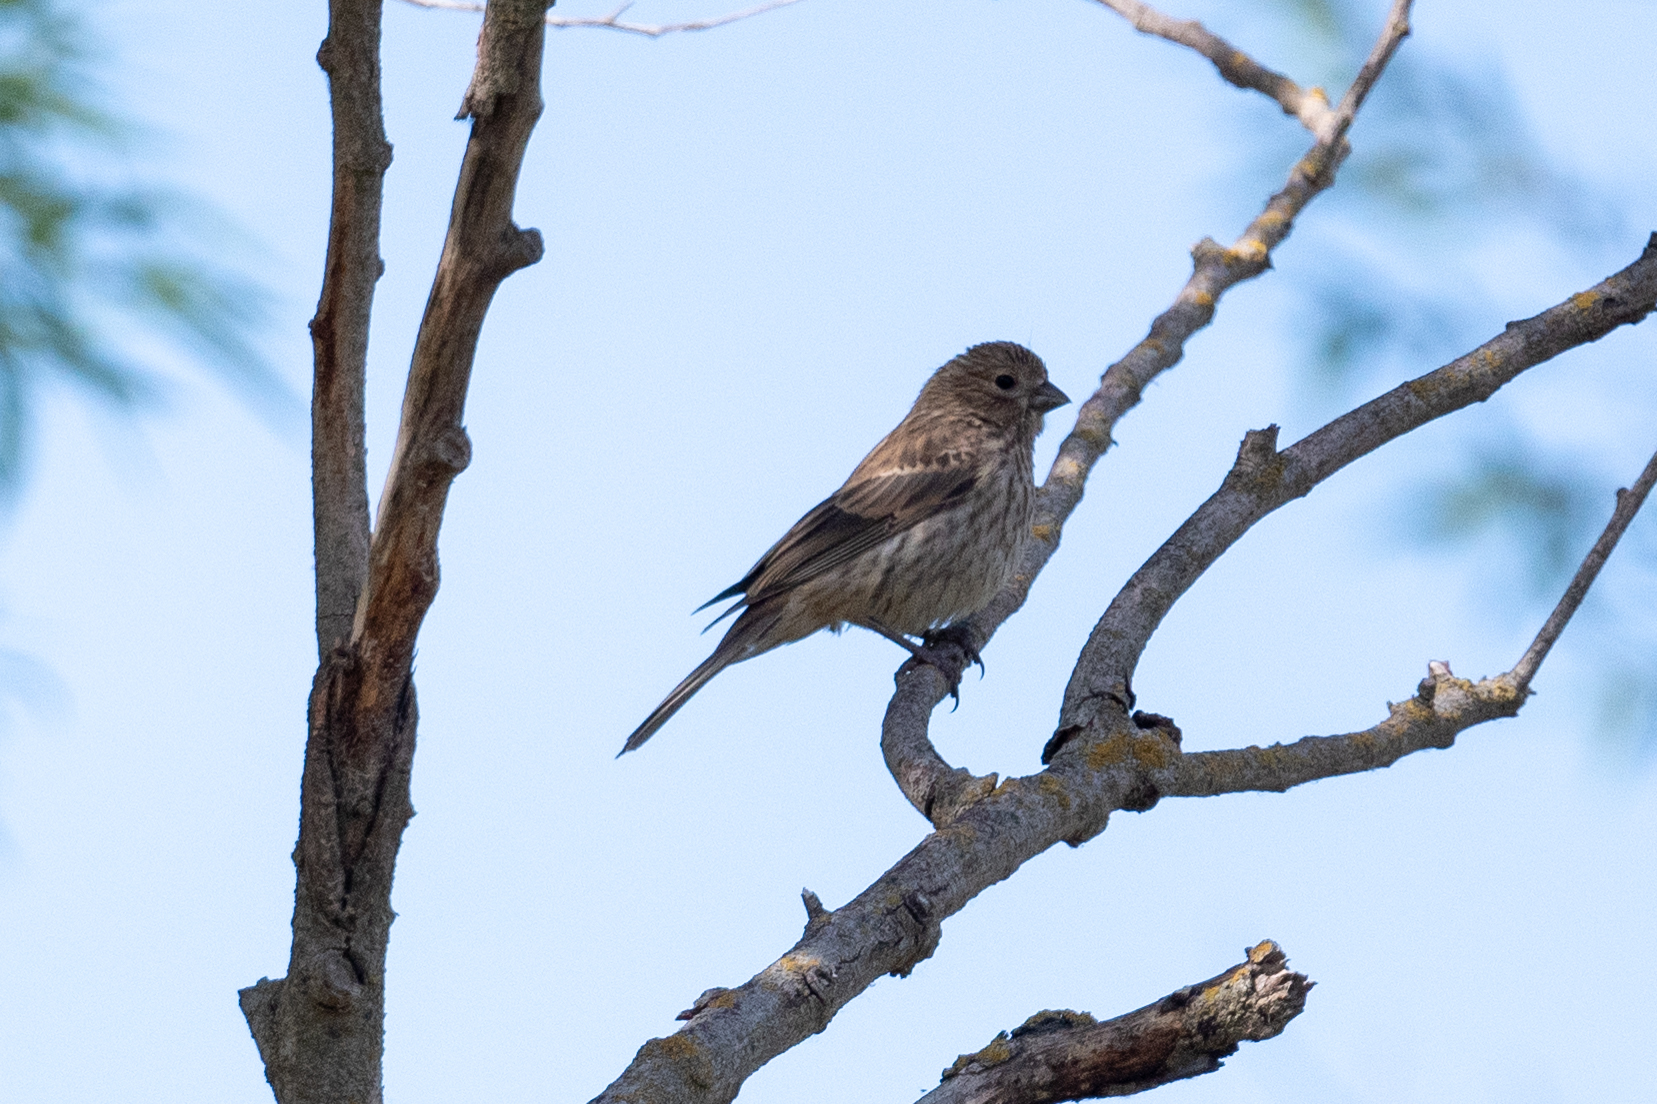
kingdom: Animalia
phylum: Chordata
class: Aves
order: Passeriformes
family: Fringillidae
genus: Haemorhous
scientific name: Haemorhous mexicanus
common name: House finch
